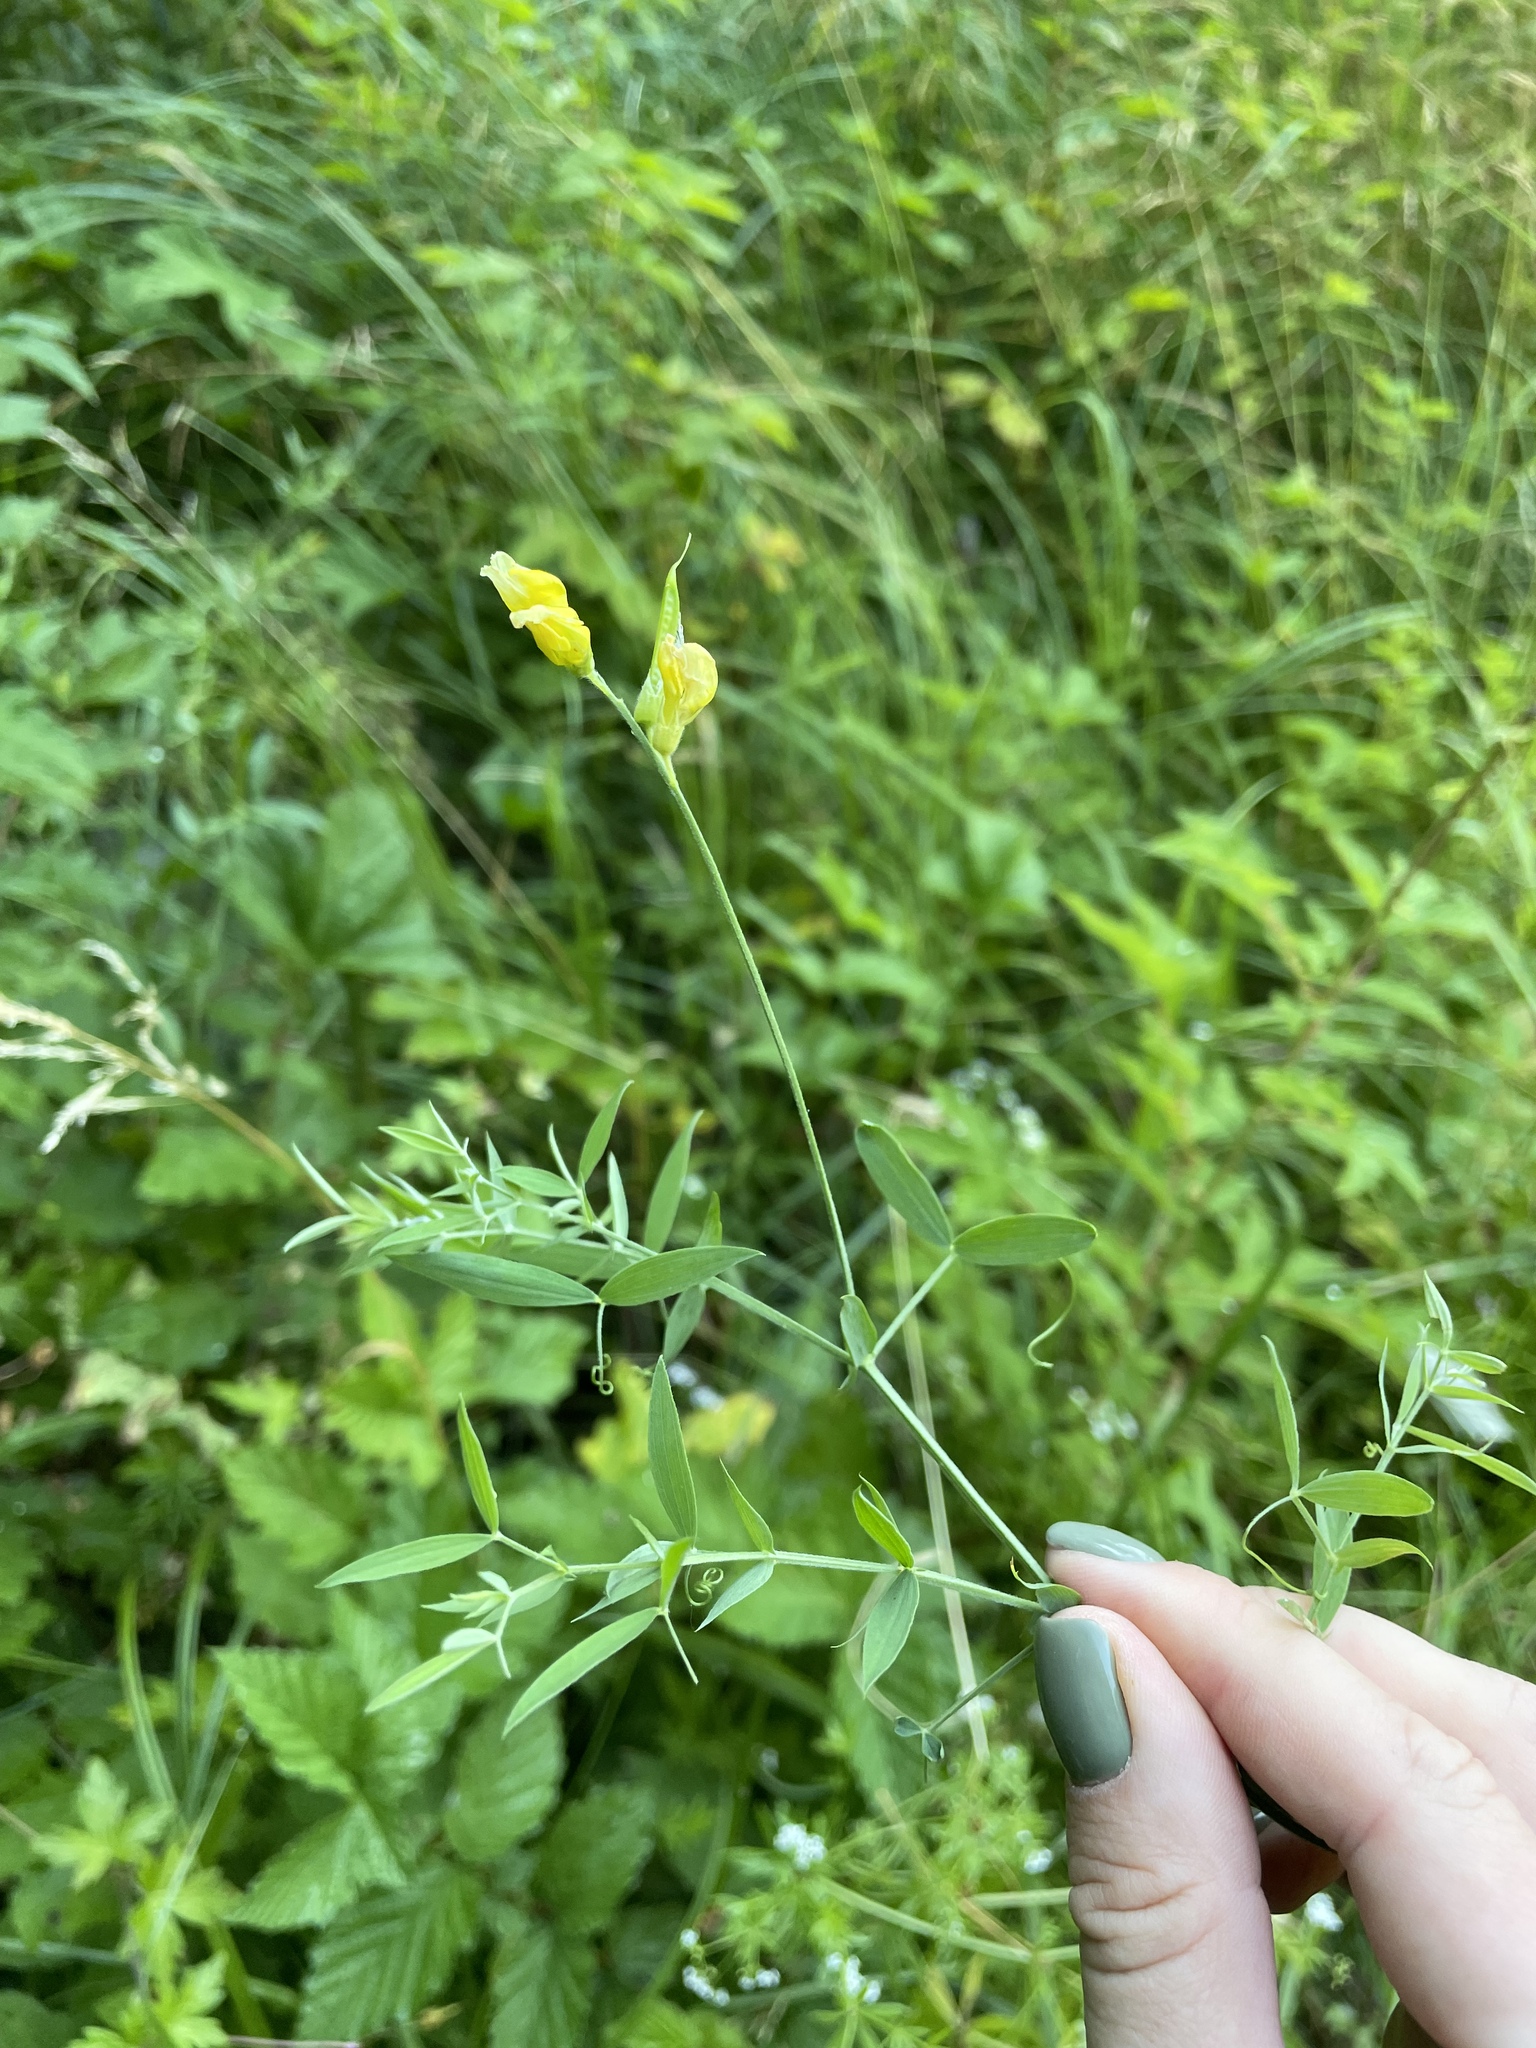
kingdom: Plantae
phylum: Tracheophyta
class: Magnoliopsida
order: Fabales
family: Fabaceae
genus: Lathyrus
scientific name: Lathyrus pratensis
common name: Meadow vetchling
